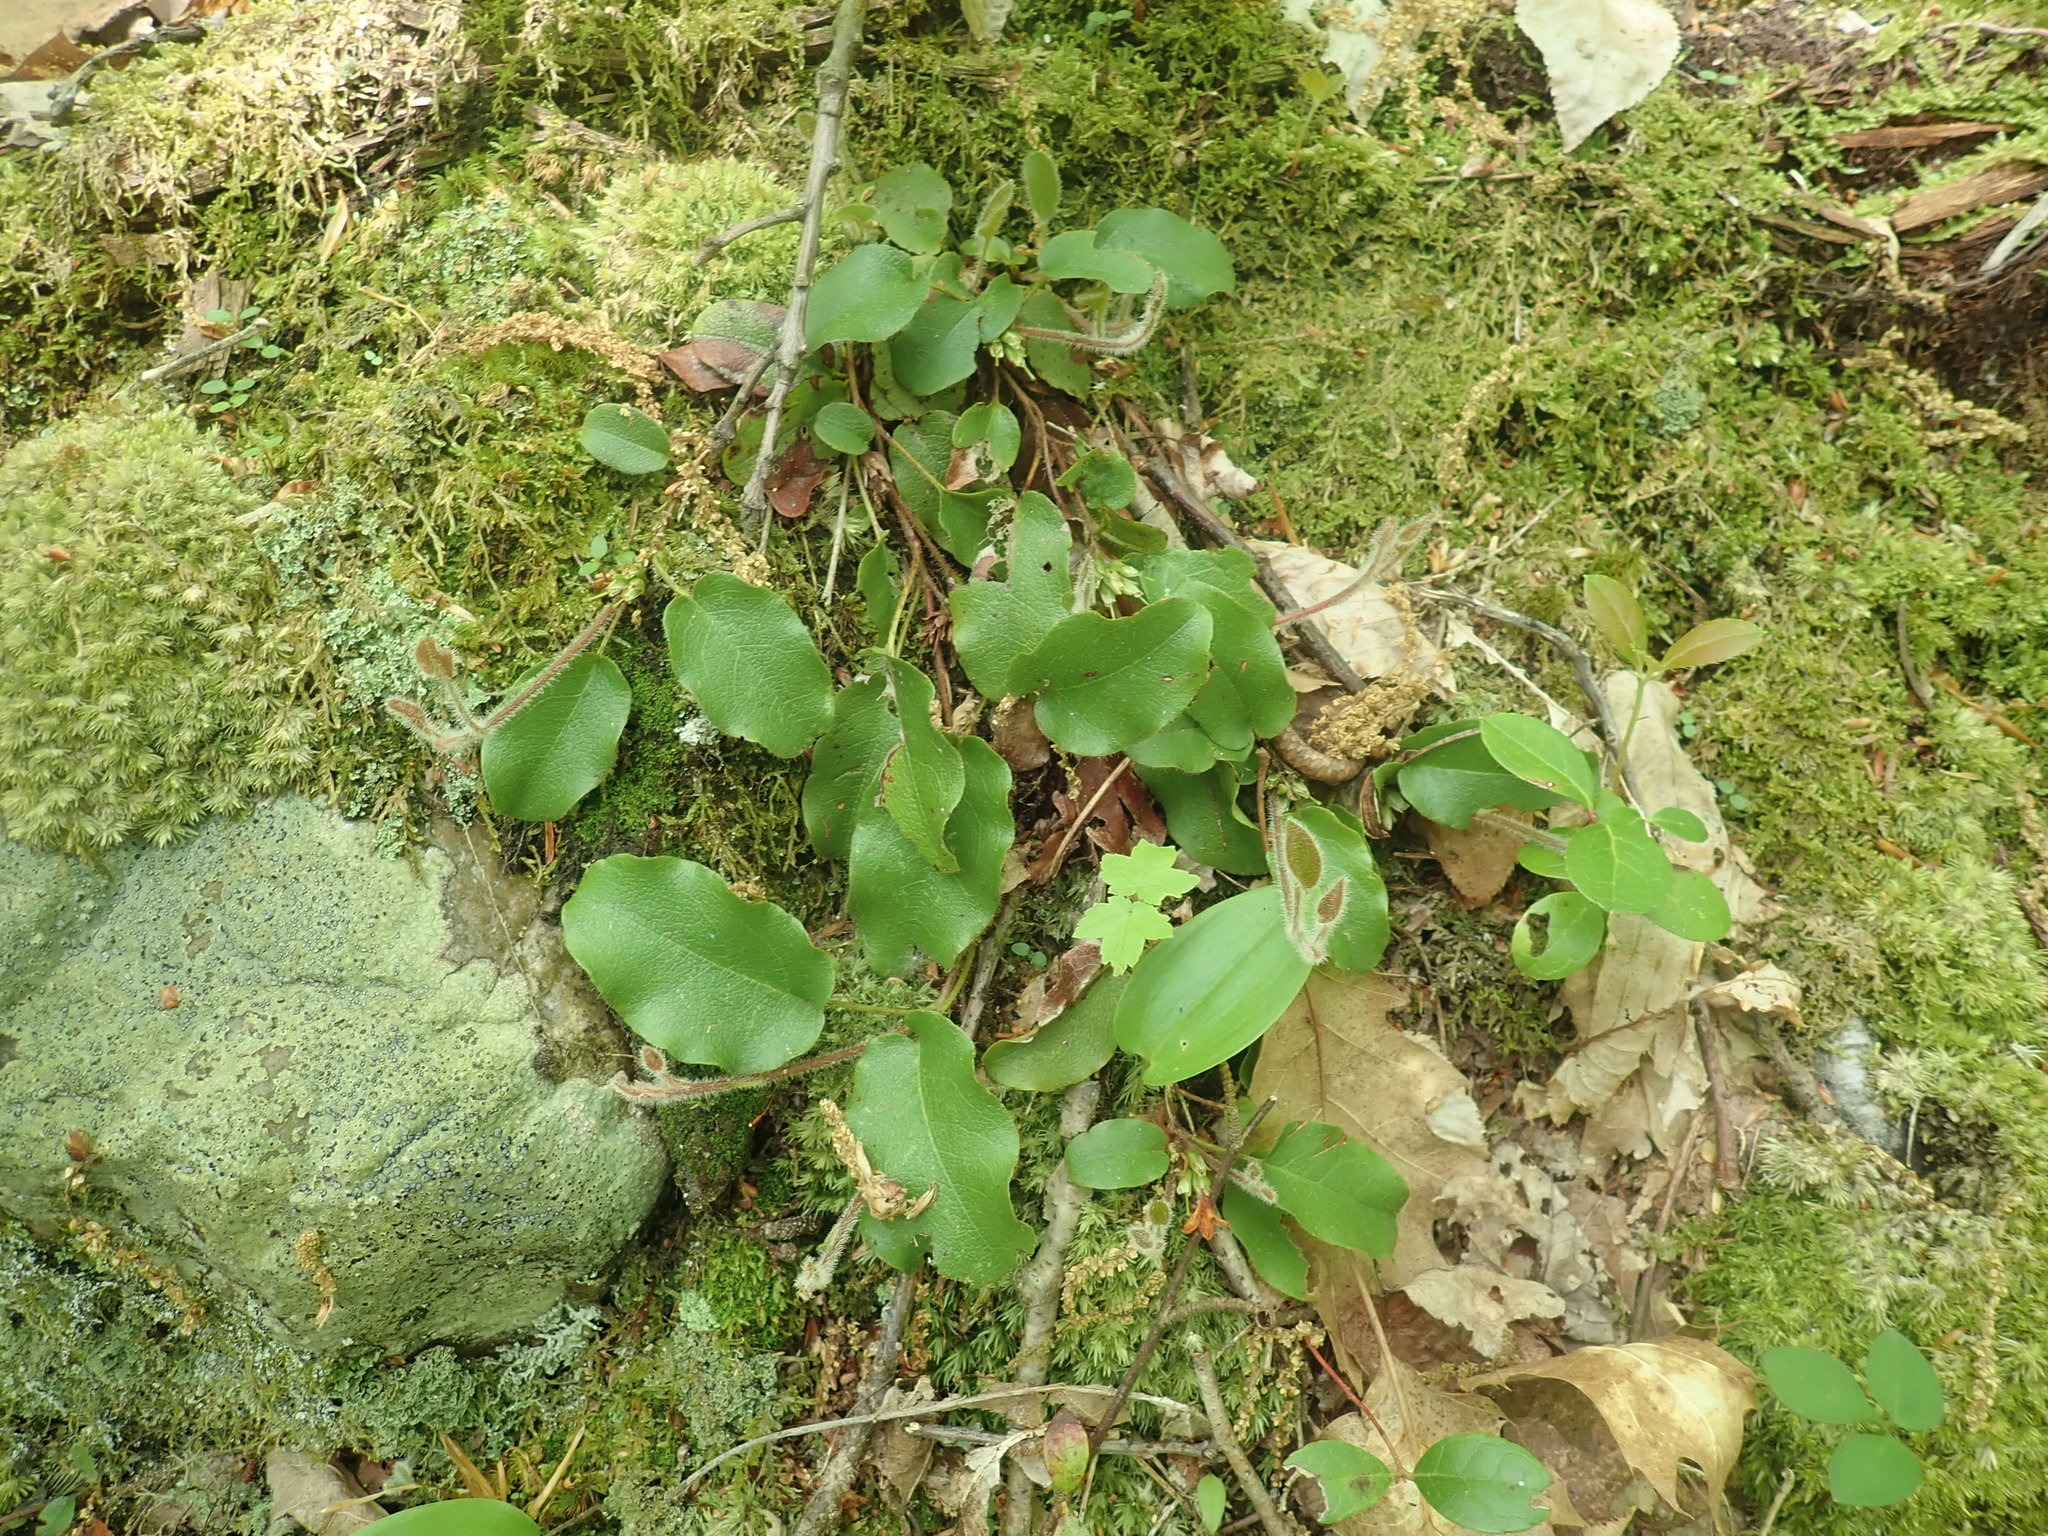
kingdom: Plantae
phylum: Tracheophyta
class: Magnoliopsida
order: Ericales
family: Ericaceae
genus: Epigaea
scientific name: Epigaea repens
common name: Gravelroot
